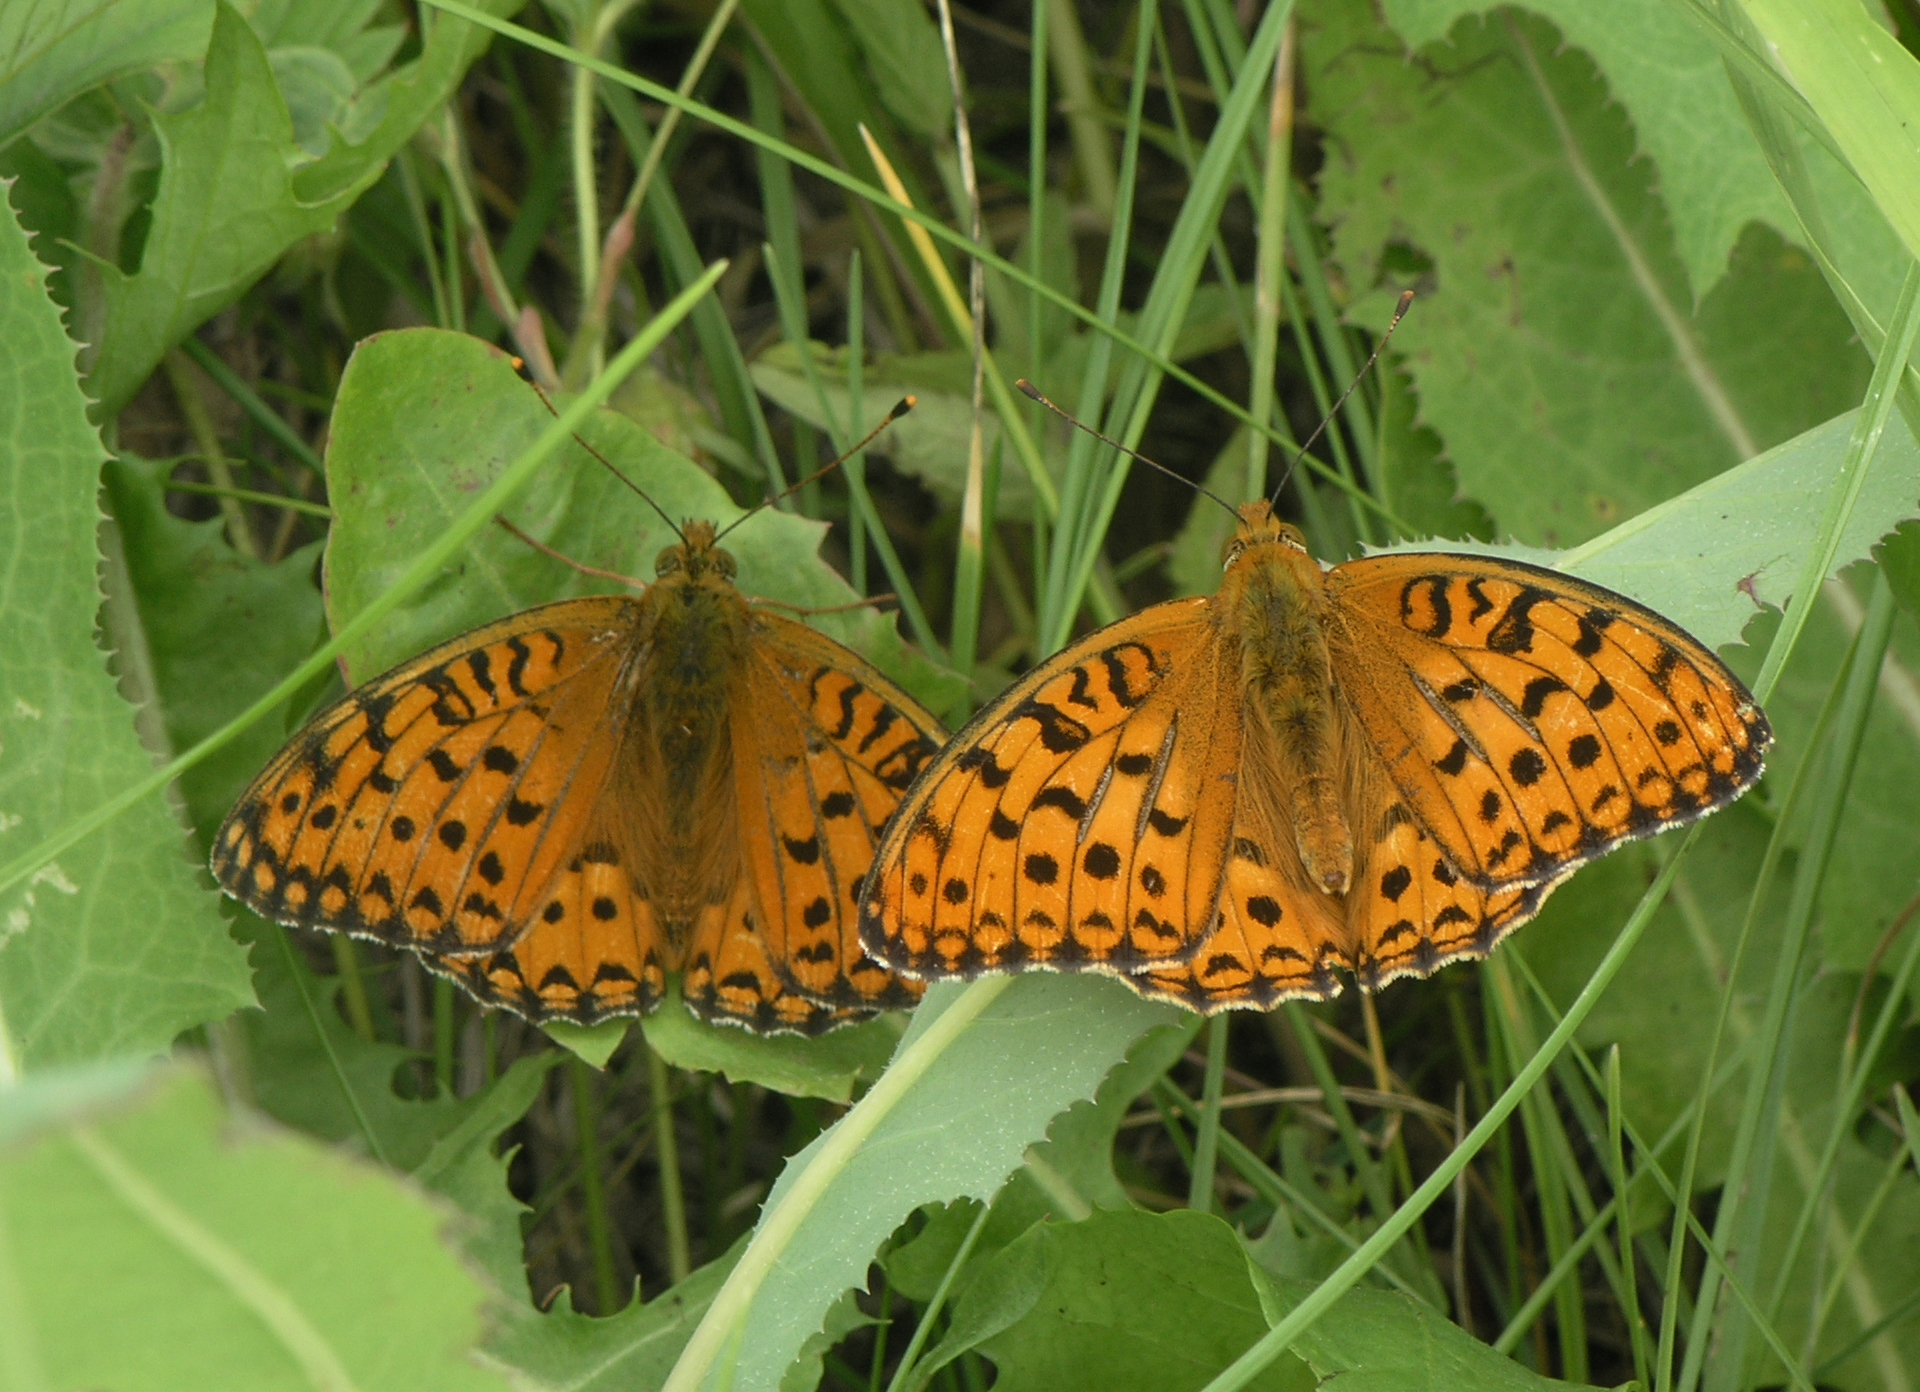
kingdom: Animalia
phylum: Arthropoda
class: Insecta
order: Lepidoptera
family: Nymphalidae
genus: Fabriciana
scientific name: Fabriciana adippe
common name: High brown fritillary
